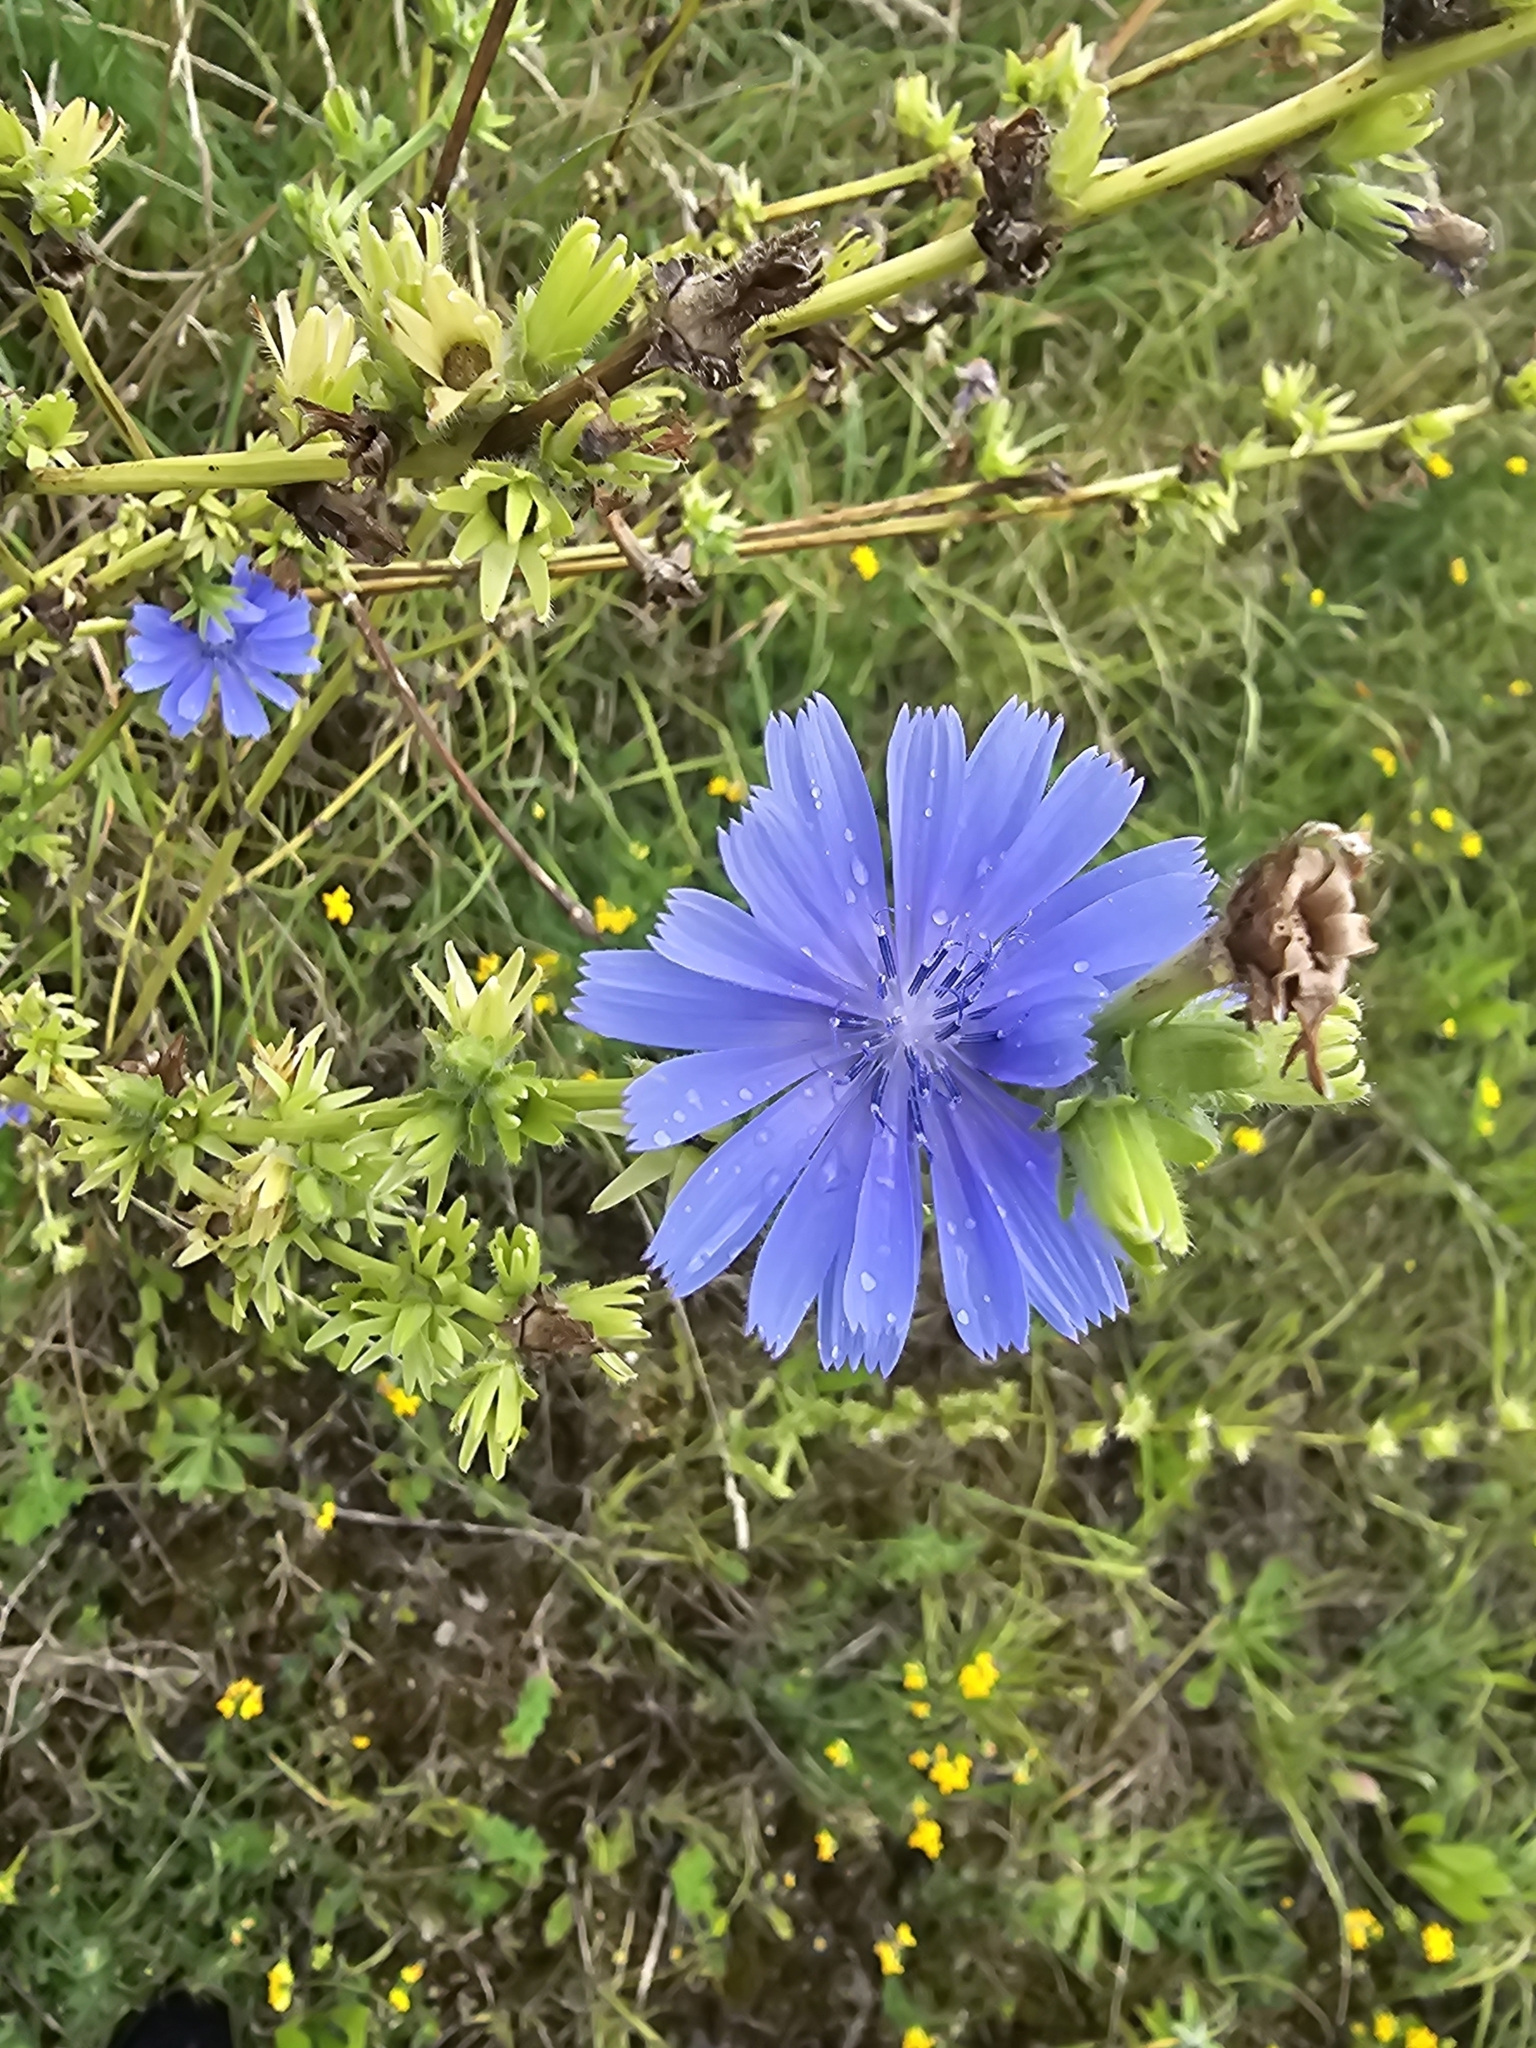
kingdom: Plantae
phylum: Tracheophyta
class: Magnoliopsida
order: Asterales
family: Asteraceae
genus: Cichorium
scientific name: Cichorium intybus
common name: Chicory
